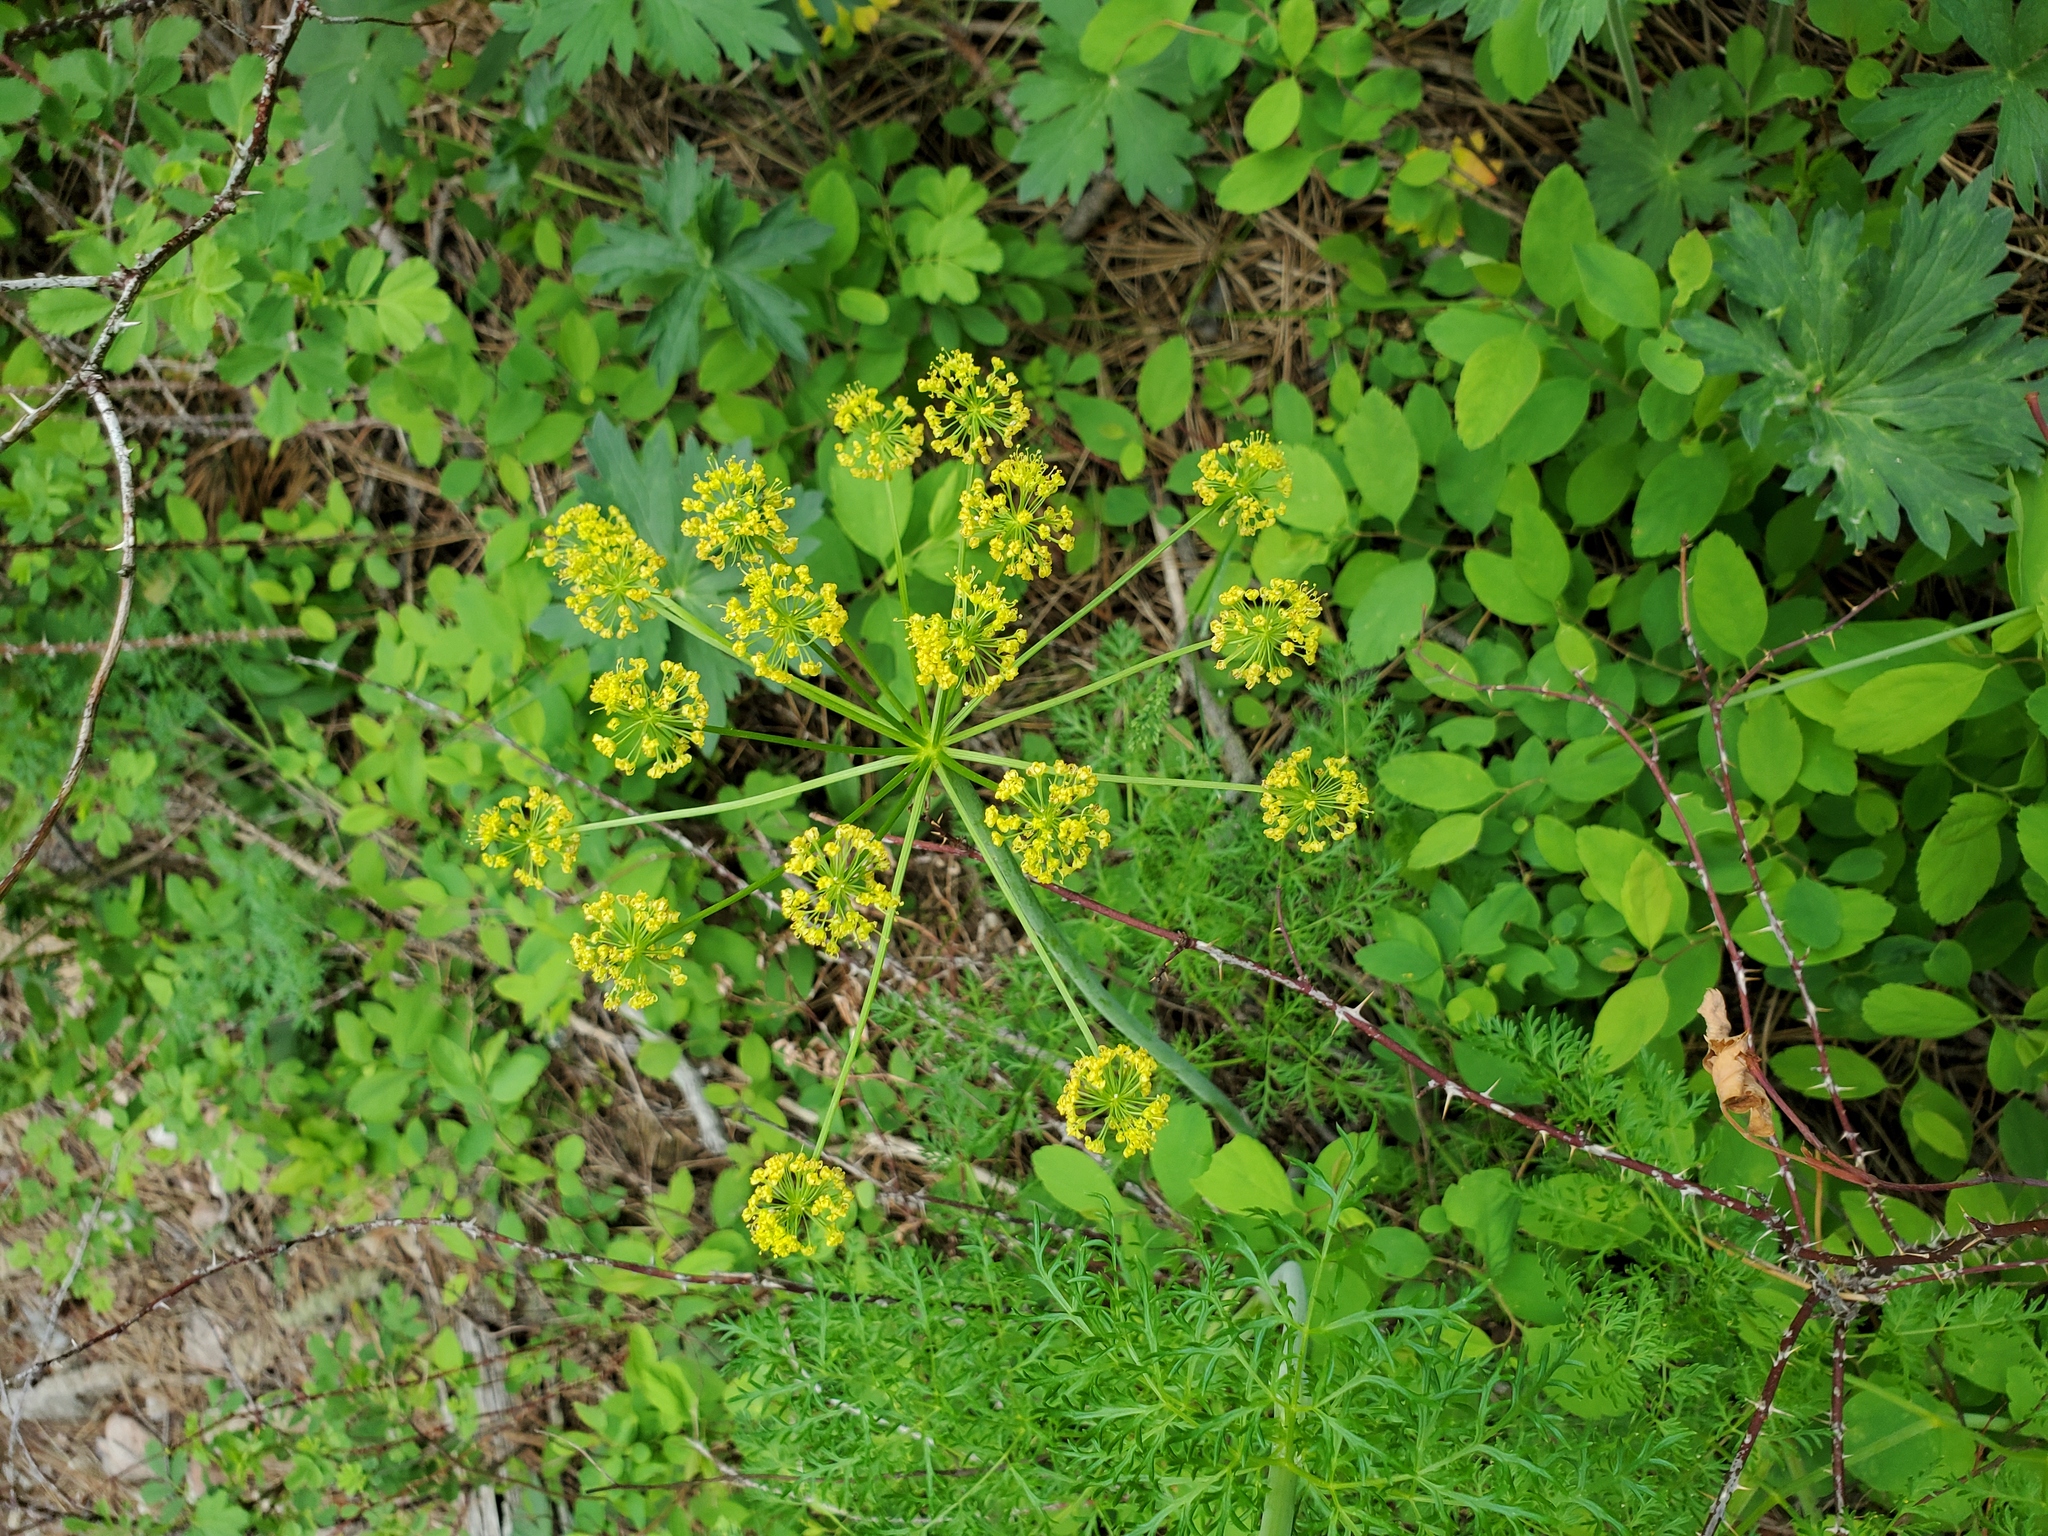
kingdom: Plantae
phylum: Tracheophyta
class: Magnoliopsida
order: Apiales
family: Apiaceae
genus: Lomatium
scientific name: Lomatium multifidum
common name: Carrot-leaved biscuitroot
